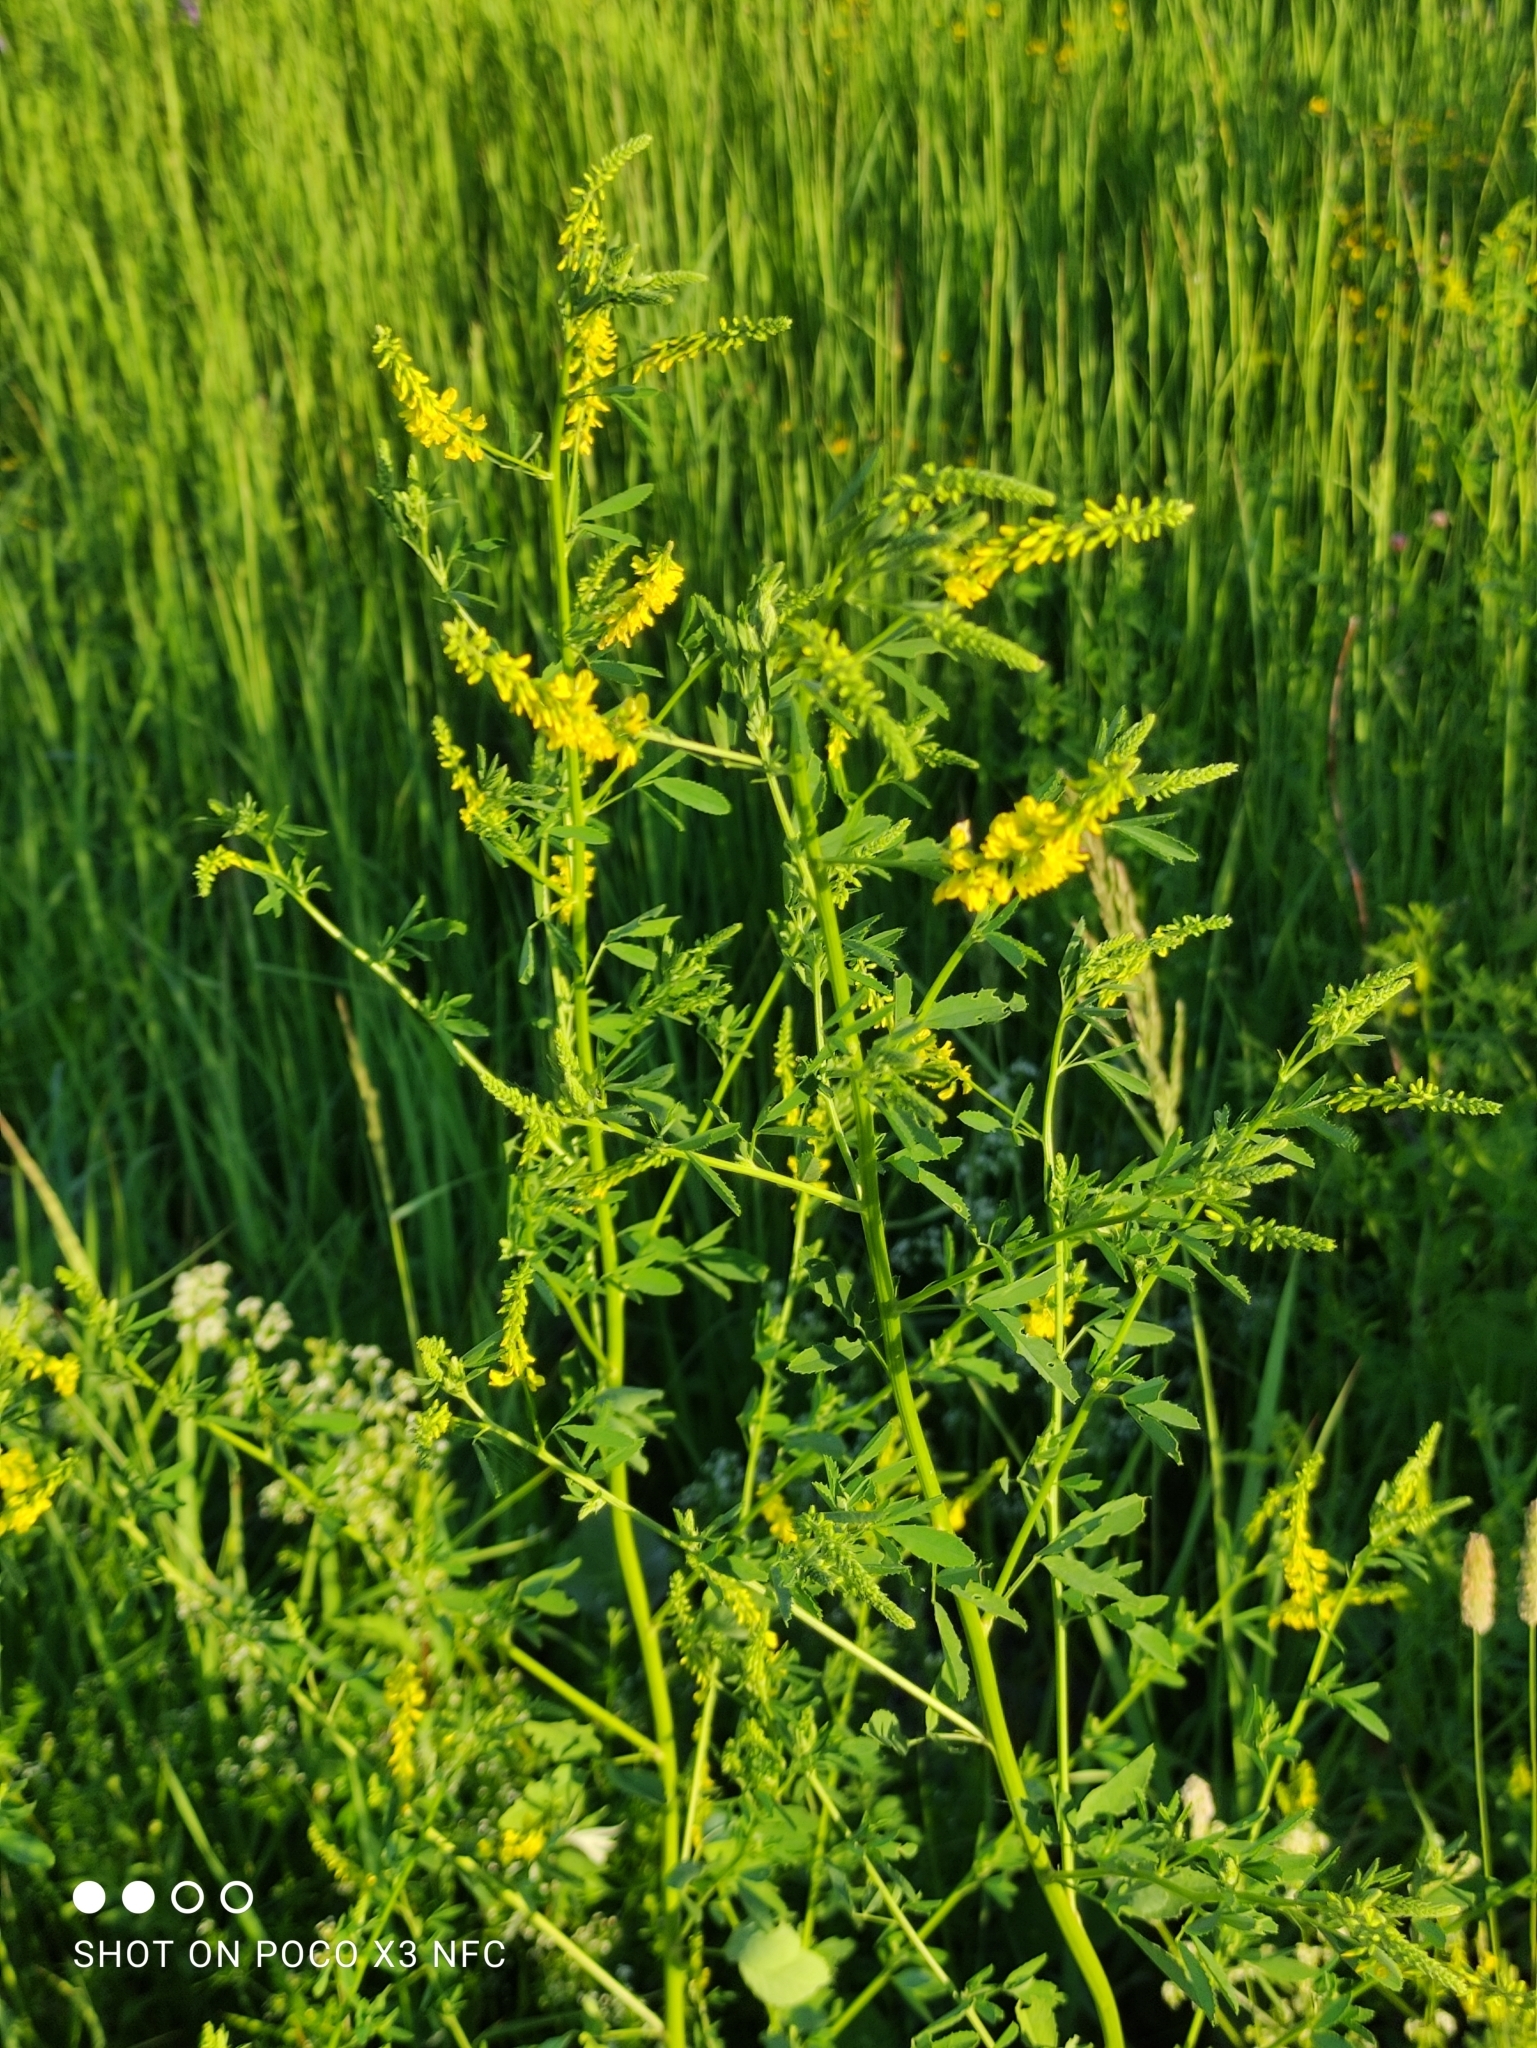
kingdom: Plantae
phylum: Tracheophyta
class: Magnoliopsida
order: Fabales
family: Fabaceae
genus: Melilotus
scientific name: Melilotus officinalis
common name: Sweetclover
